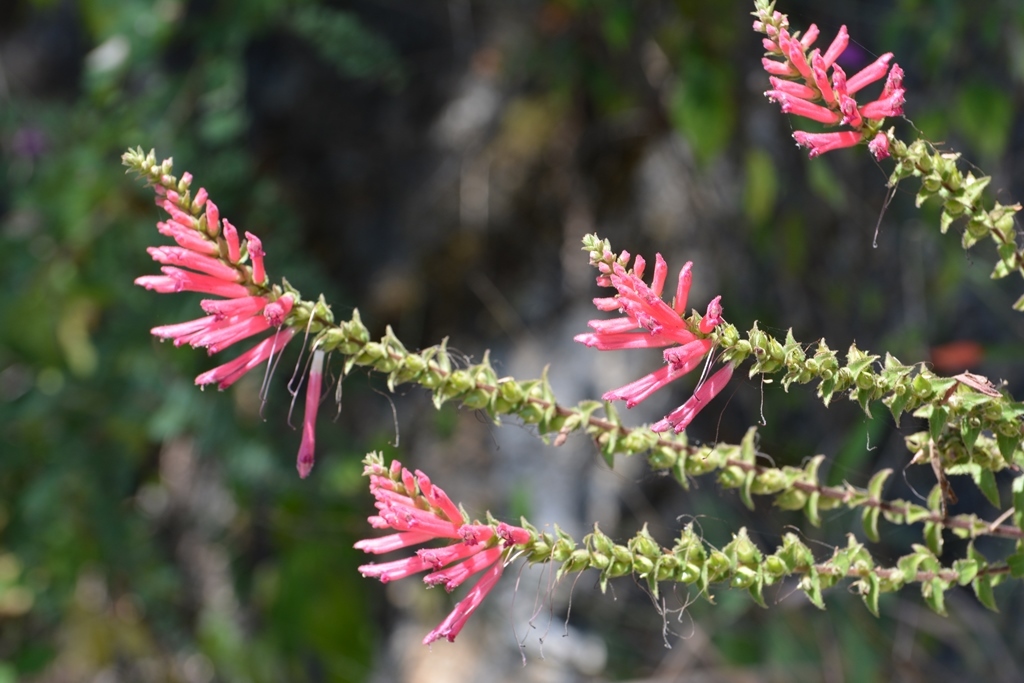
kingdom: Plantae
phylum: Tracheophyta
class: Magnoliopsida
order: Lamiales
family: Orobanchaceae
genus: Lamourouxia
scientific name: Lamourouxia viscosa
